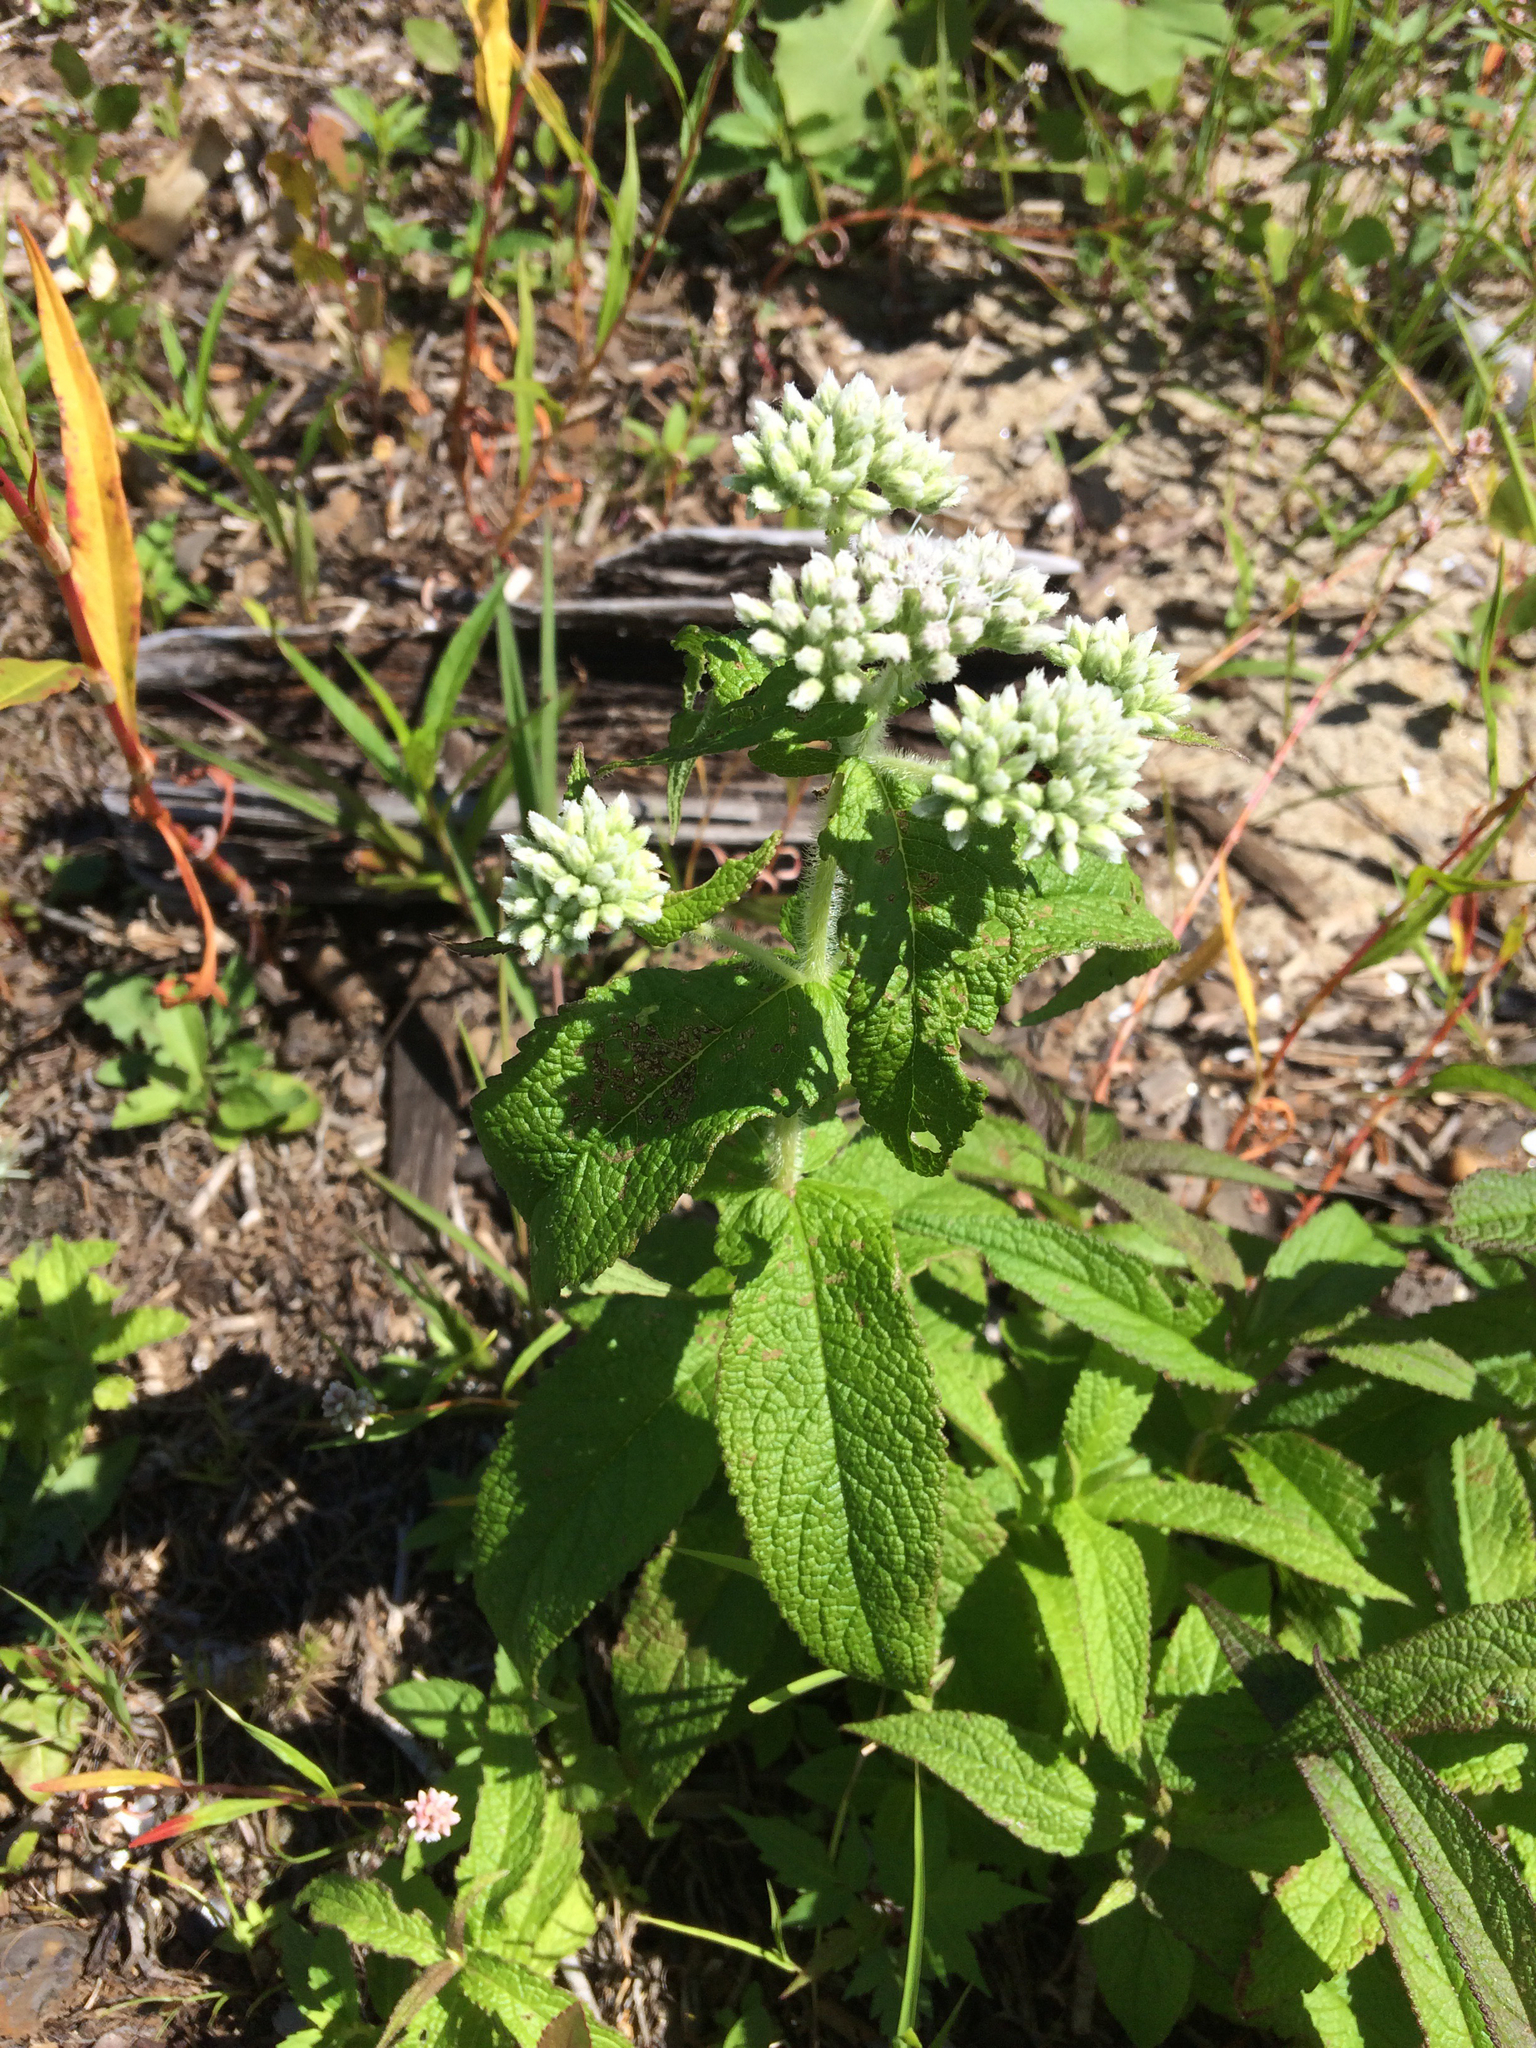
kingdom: Plantae
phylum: Tracheophyta
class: Magnoliopsida
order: Asterales
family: Asteraceae
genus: Eupatorium
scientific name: Eupatorium perfoliatum
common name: Boneset
